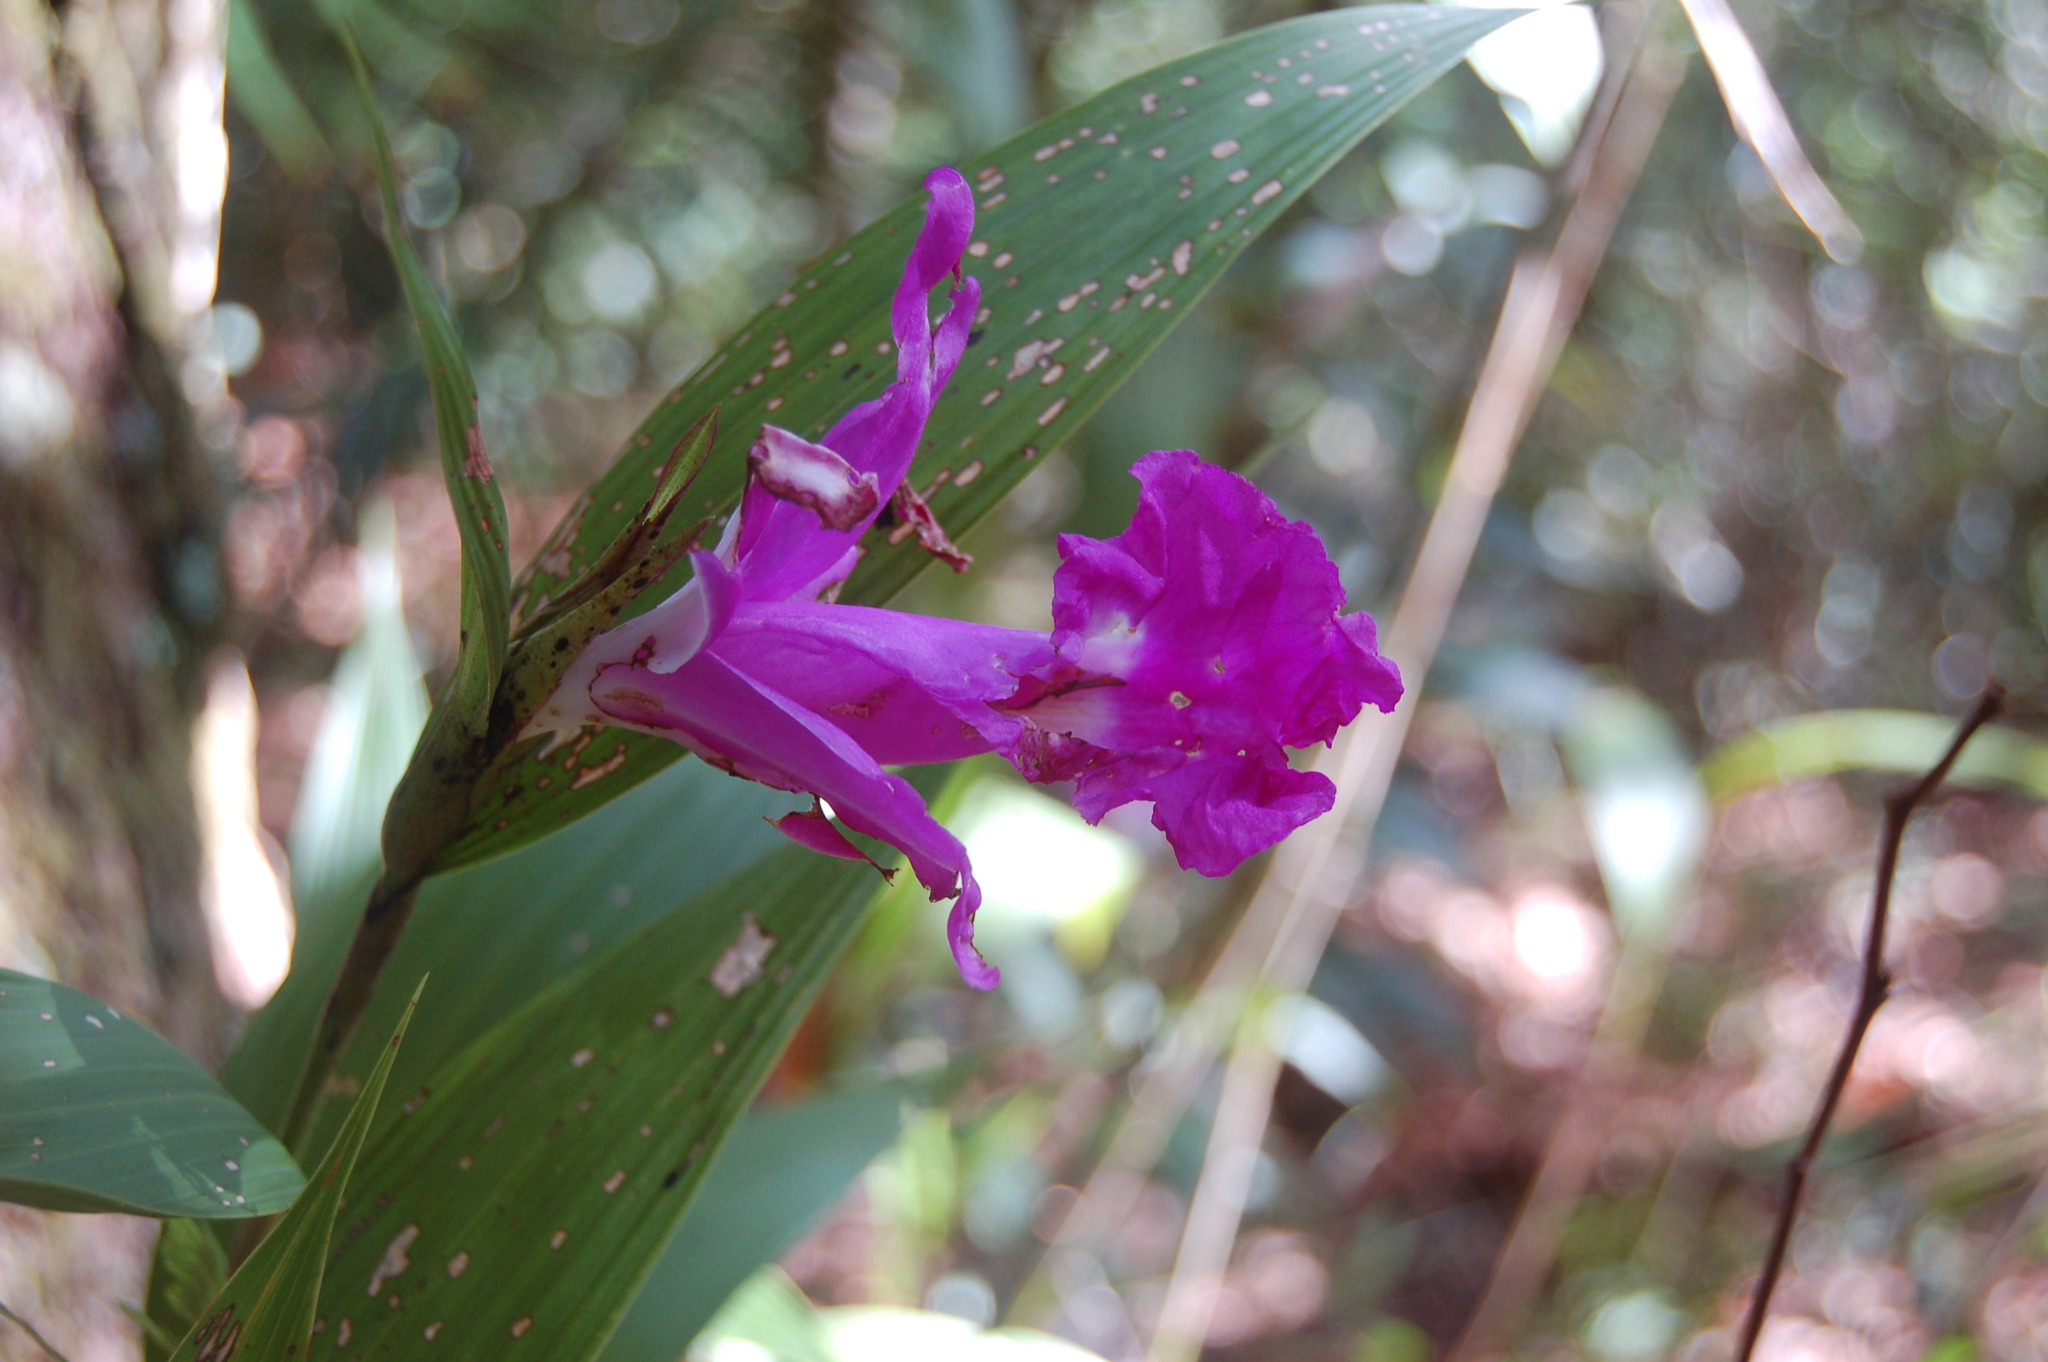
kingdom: Plantae
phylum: Tracheophyta
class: Liliopsida
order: Asparagales
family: Orchidaceae
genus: Sobralia
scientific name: Sobralia macrantha
